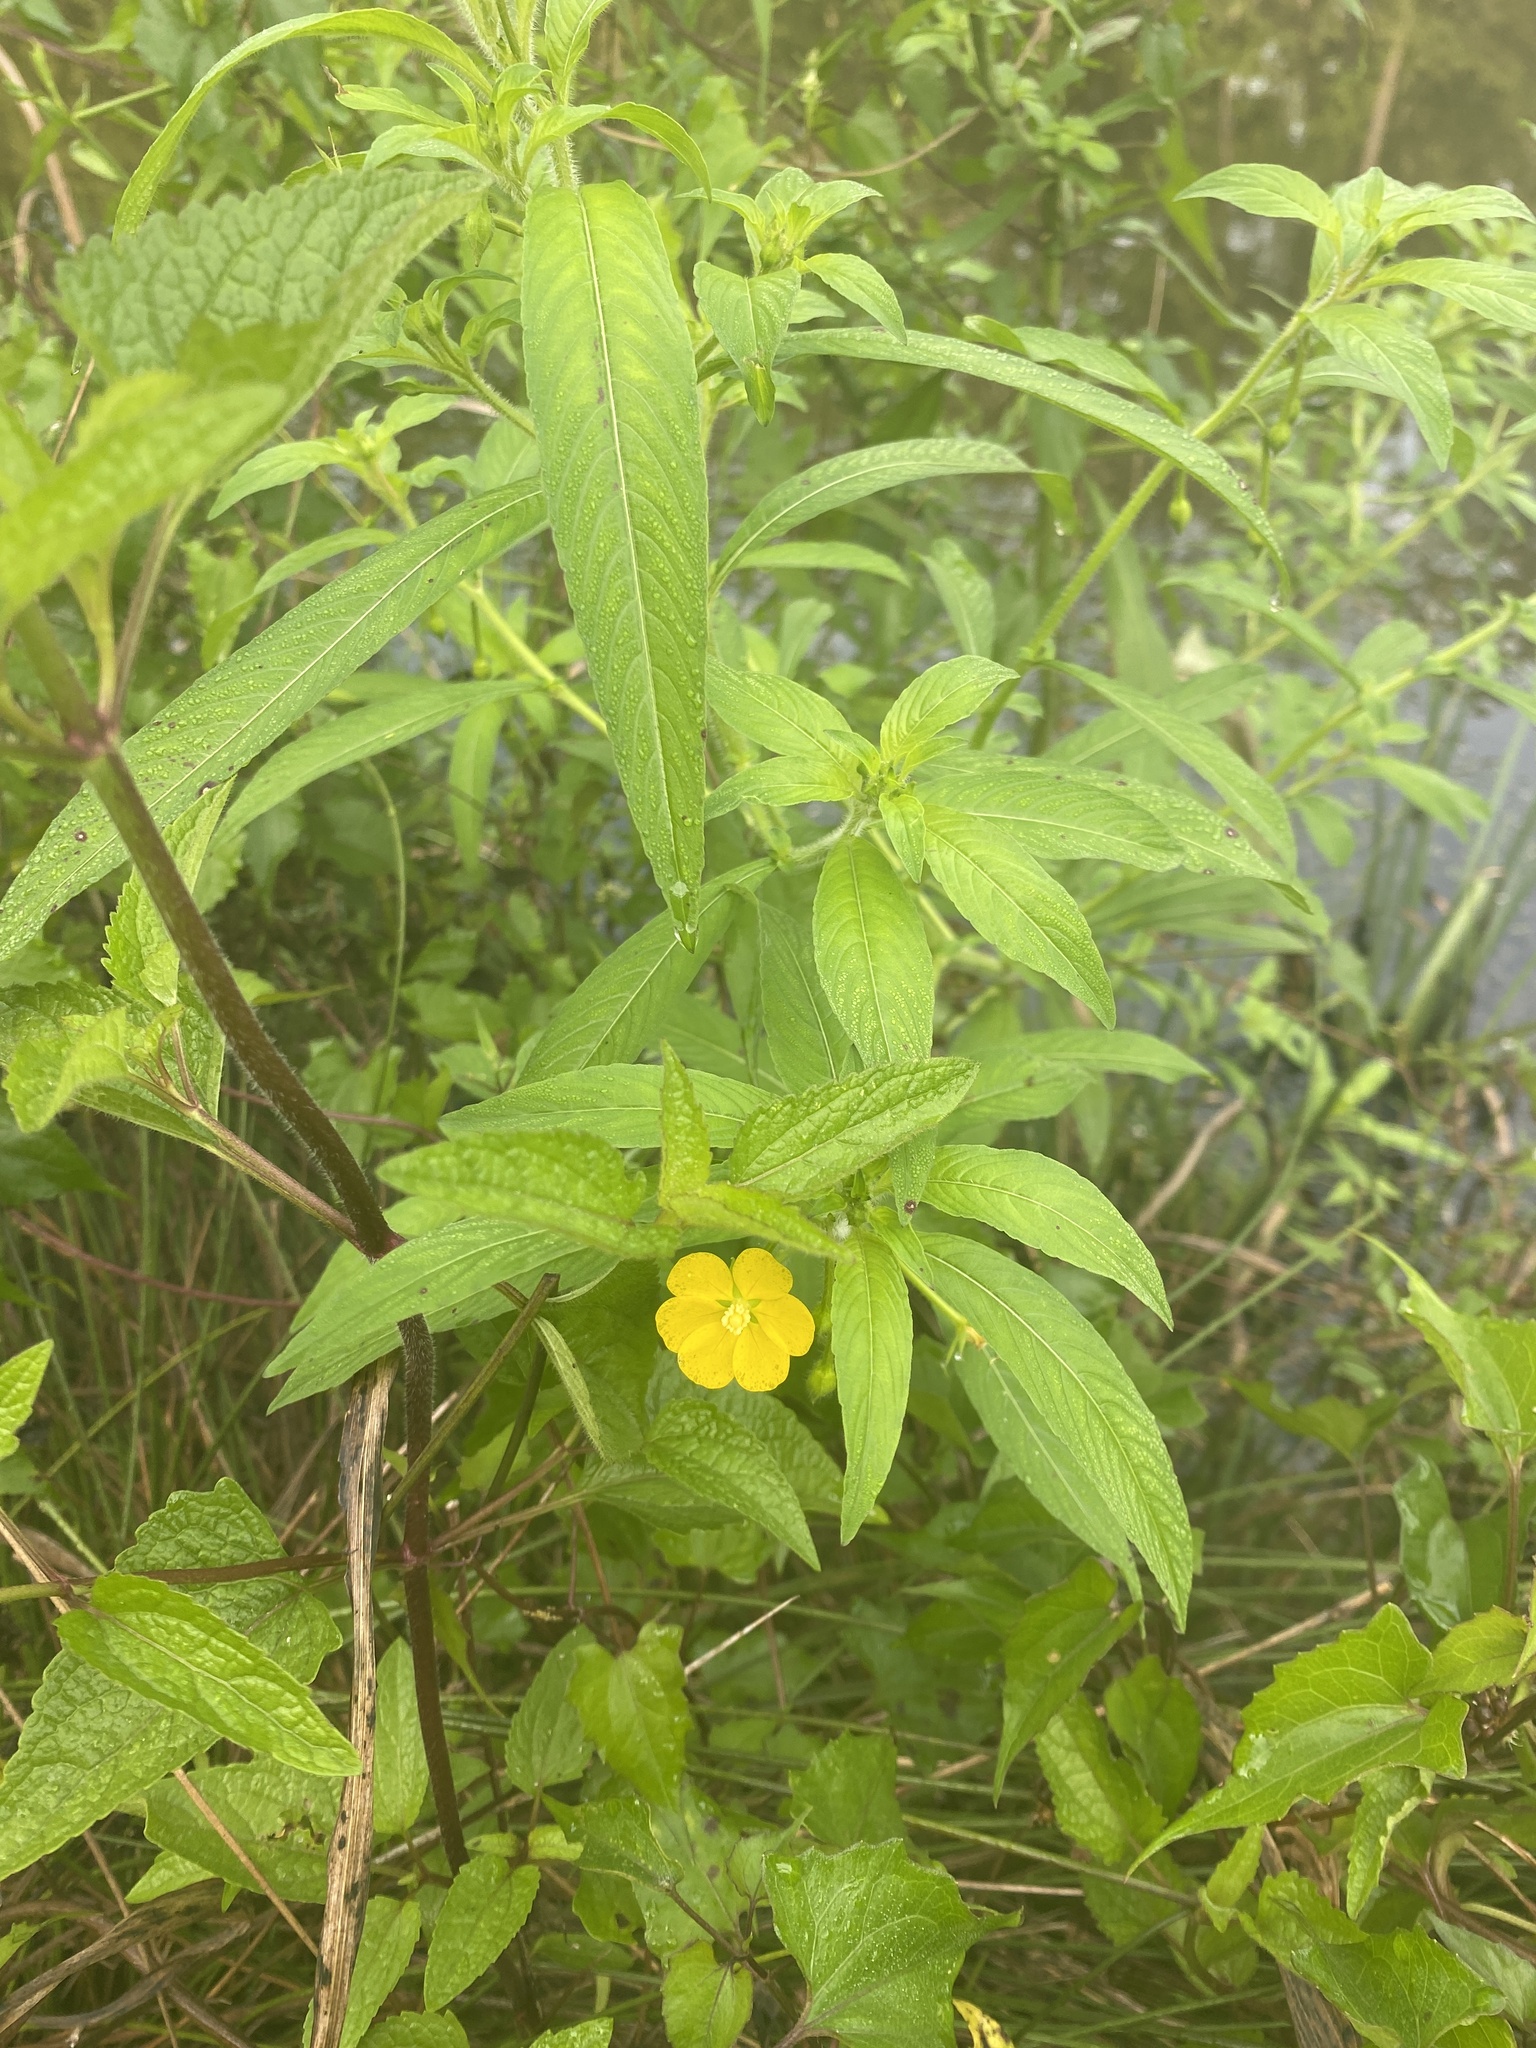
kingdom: Plantae
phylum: Tracheophyta
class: Magnoliopsida
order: Myrtales
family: Onagraceae
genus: Ludwigia
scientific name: Ludwigia leptocarpa
